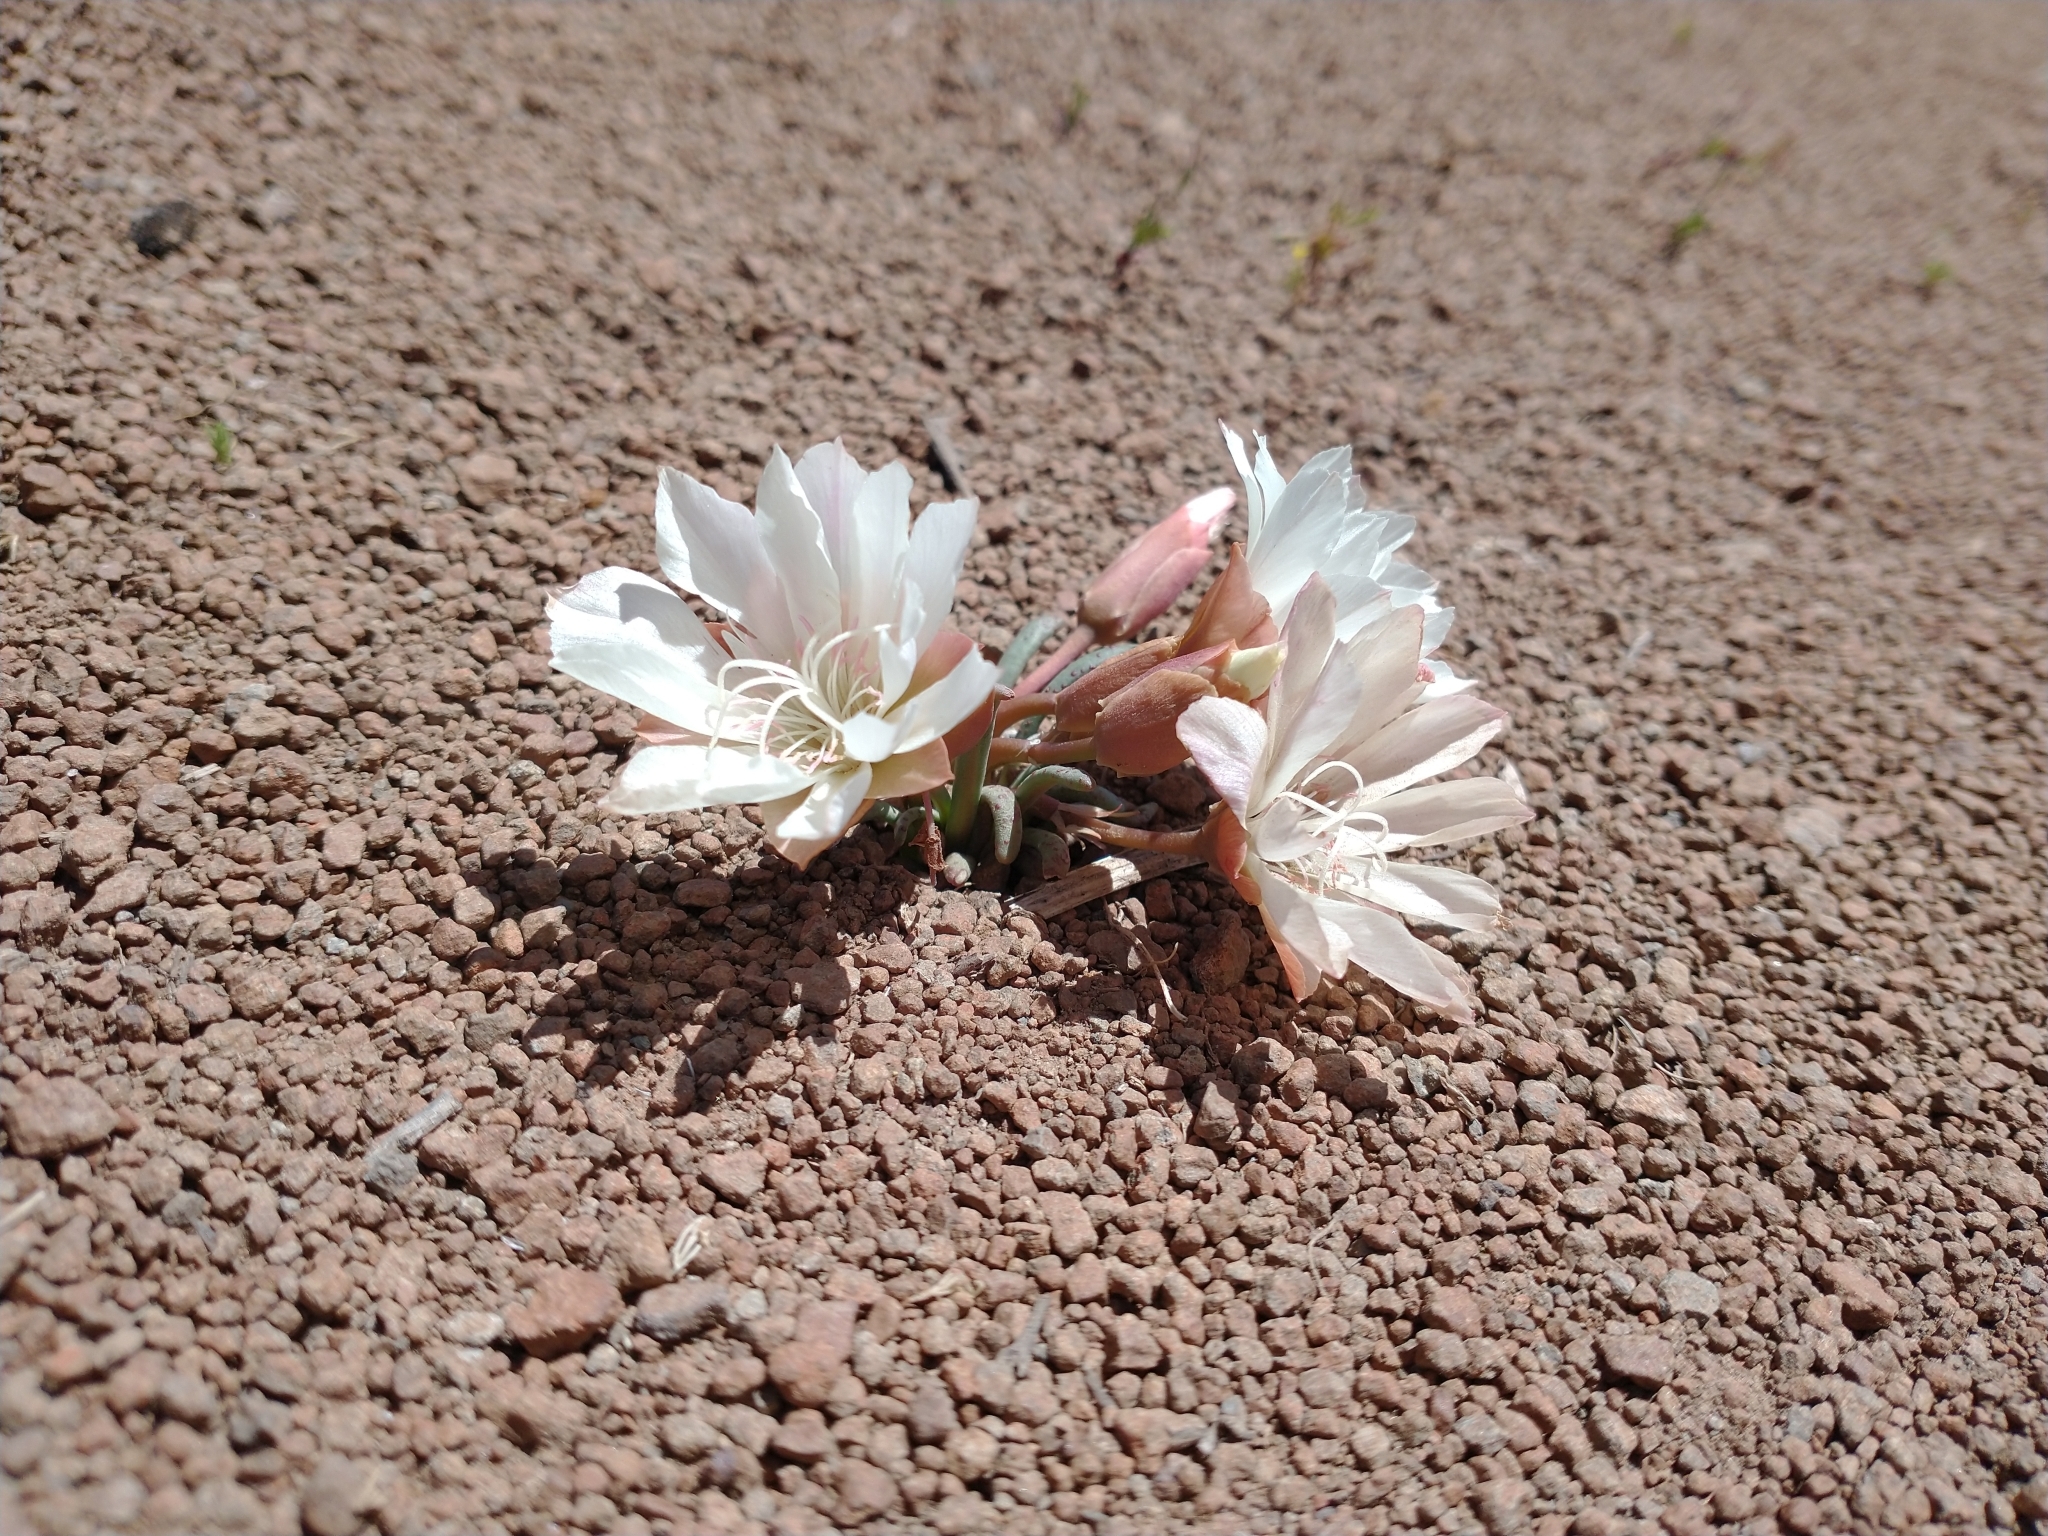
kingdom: Plantae
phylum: Tracheophyta
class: Magnoliopsida
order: Caryophyllales
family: Montiaceae
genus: Lewisia
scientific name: Lewisia rediviva
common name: Bitter-root
